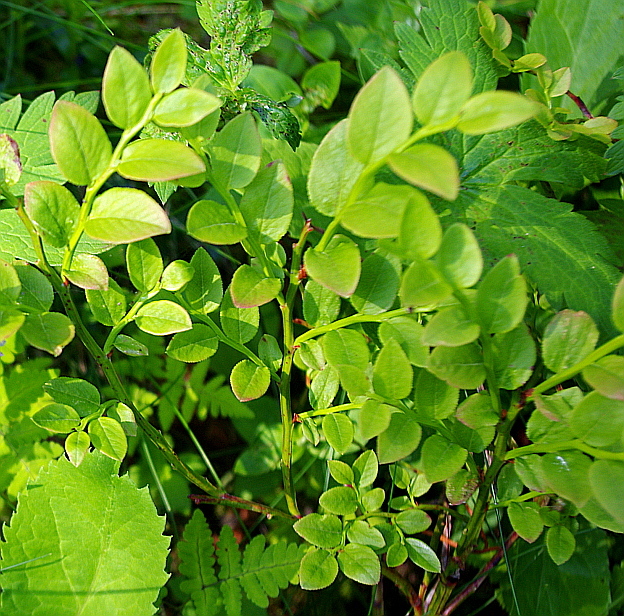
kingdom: Plantae
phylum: Tracheophyta
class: Magnoliopsida
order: Ericales
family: Ericaceae
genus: Vaccinium
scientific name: Vaccinium myrtillus
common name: Bilberry
